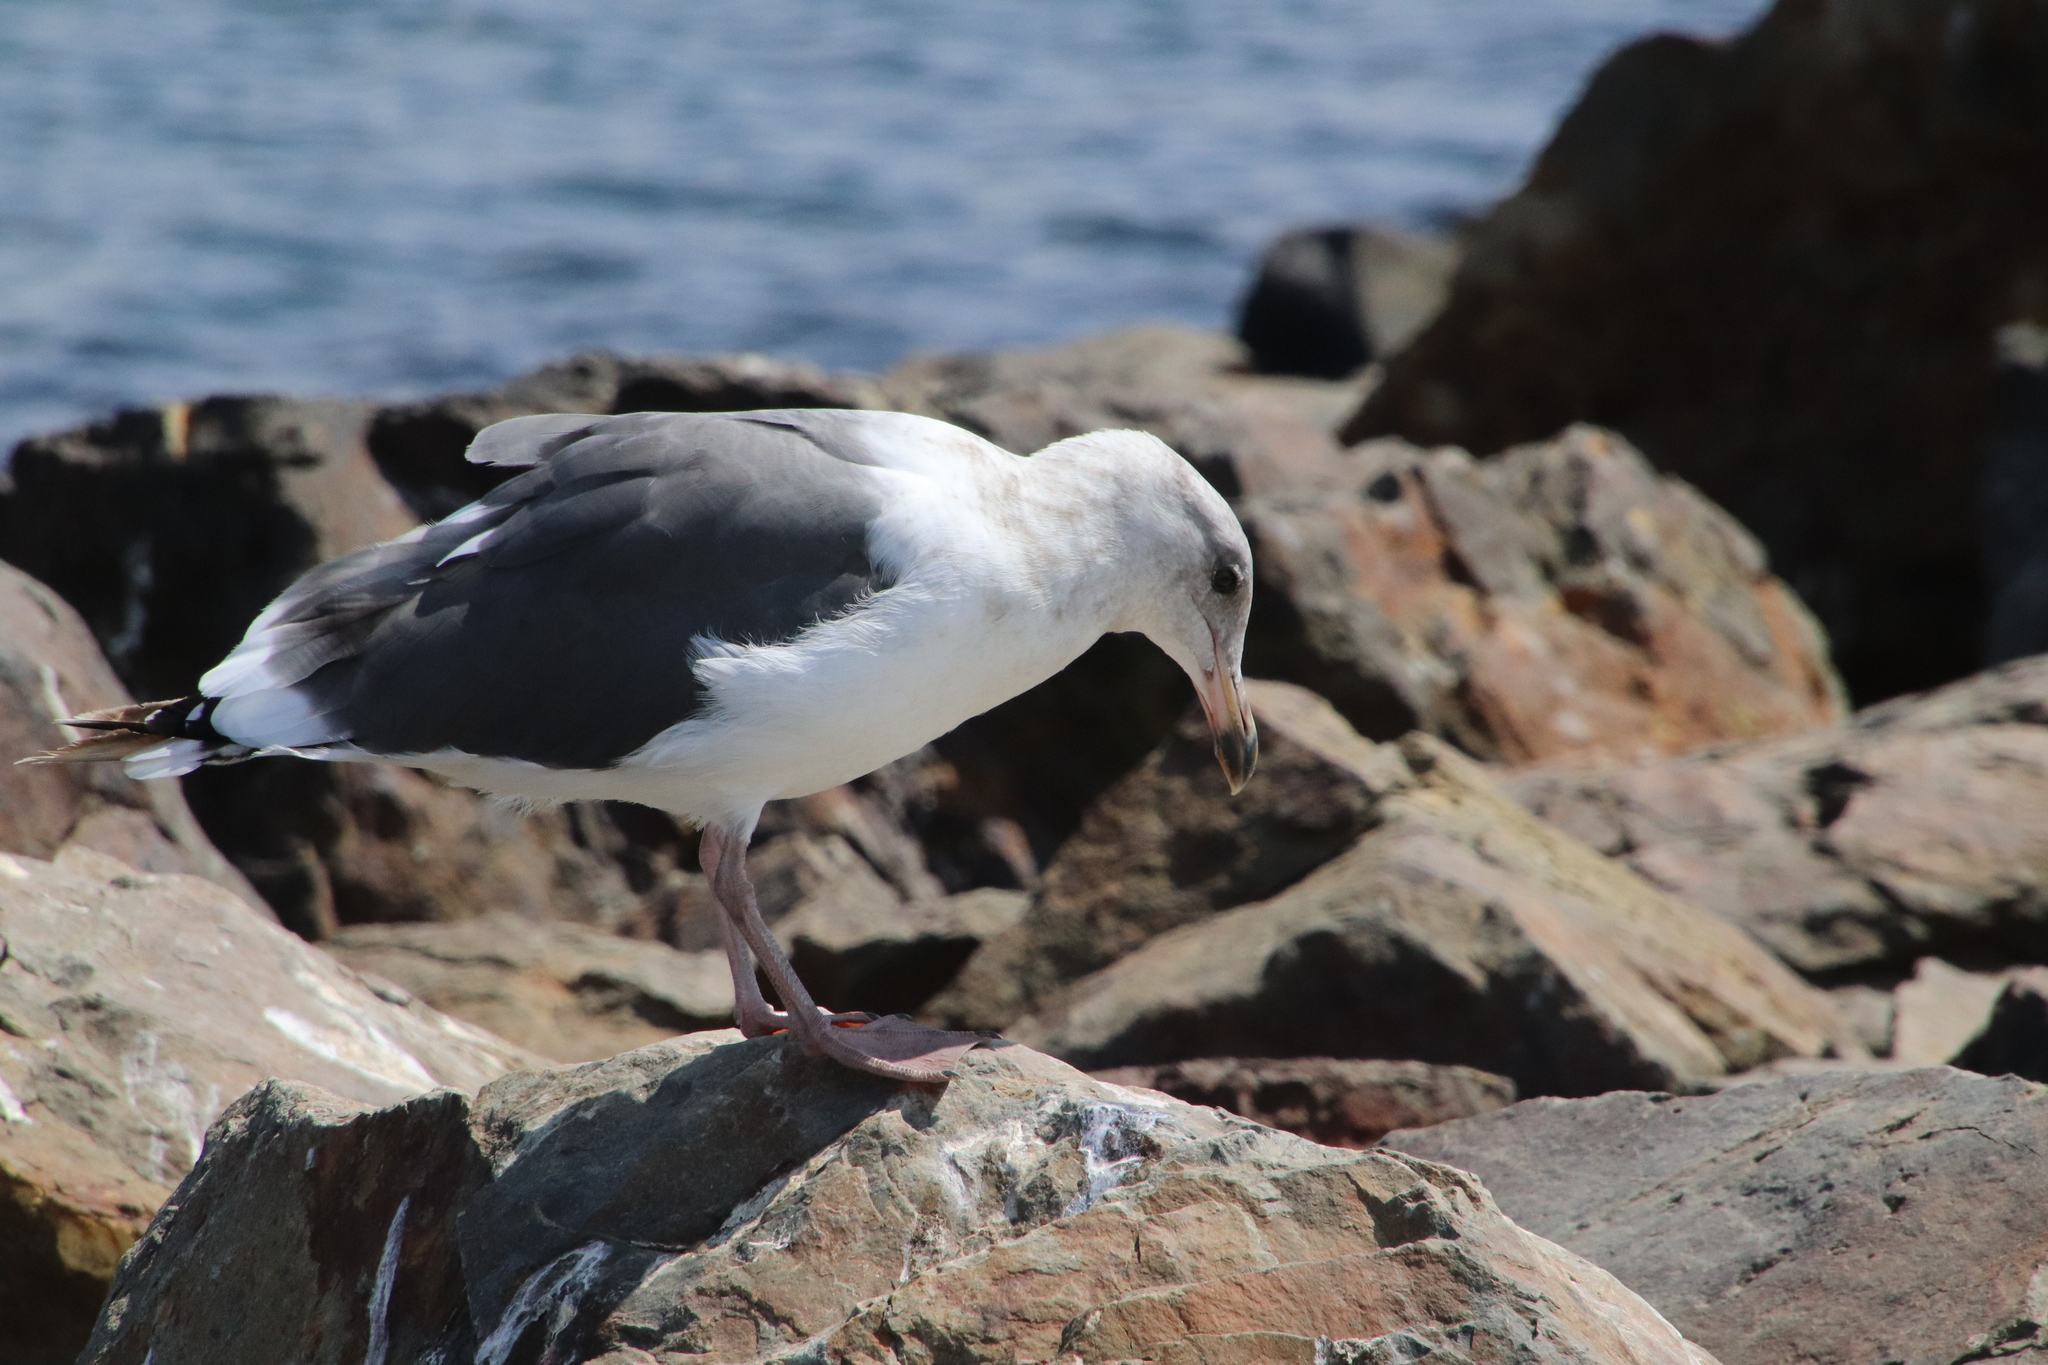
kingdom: Animalia
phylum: Chordata
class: Aves
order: Charadriiformes
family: Laridae
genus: Larus
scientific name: Larus occidentalis
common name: Western gull
